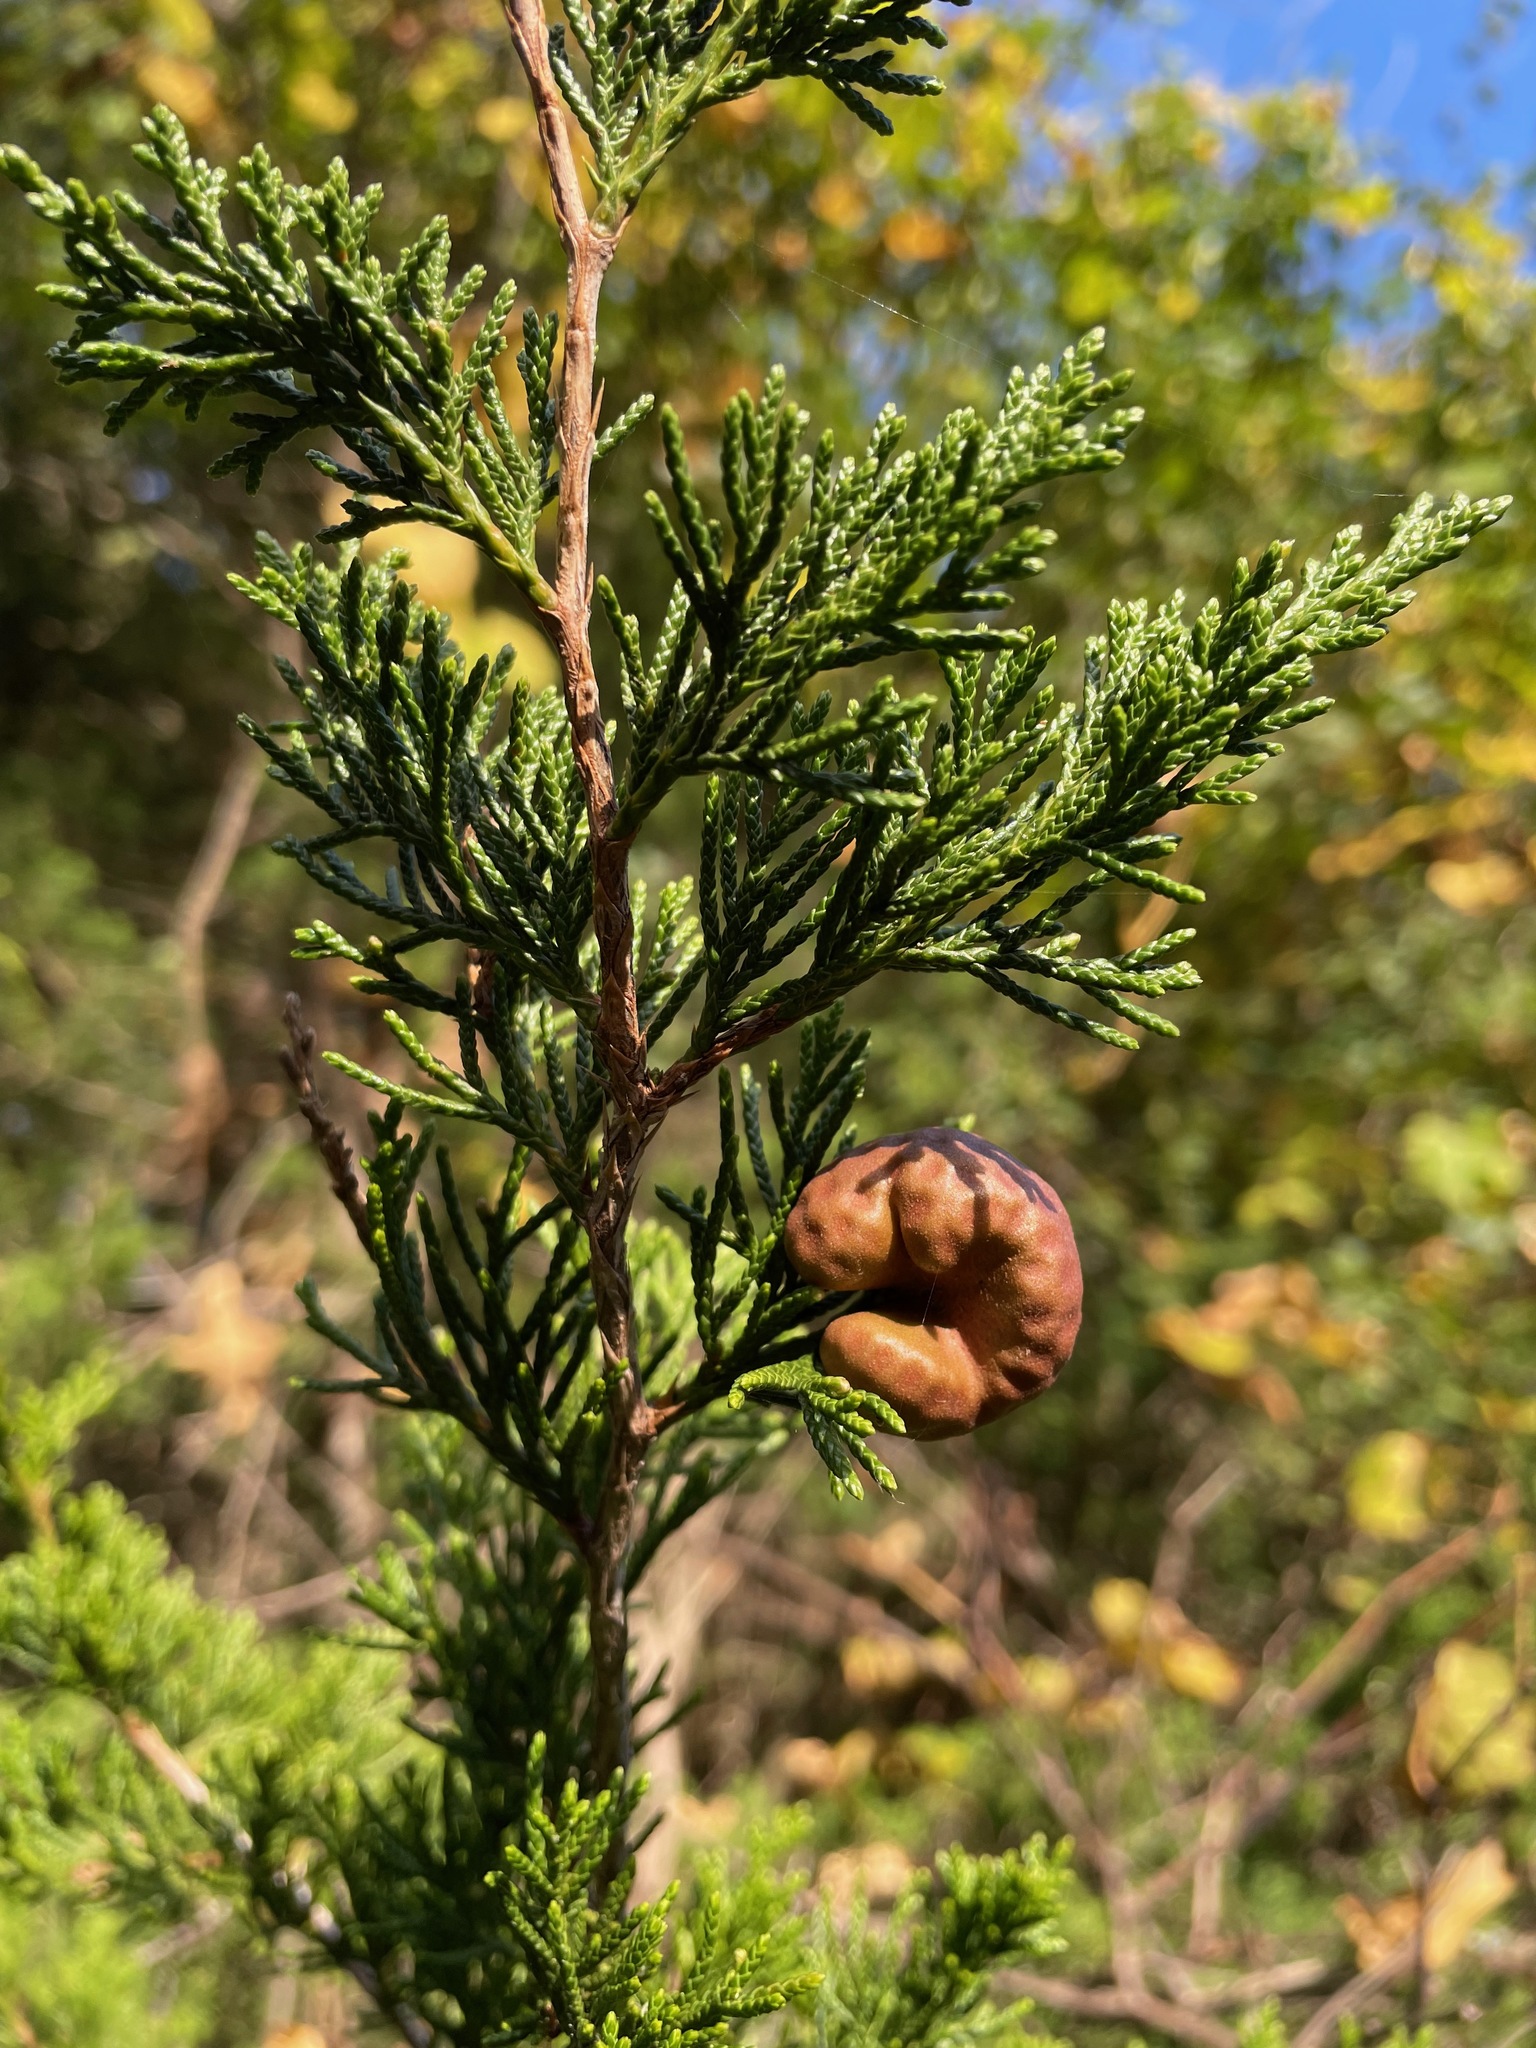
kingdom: Fungi
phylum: Basidiomycota
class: Pucciniomycetes
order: Pucciniales
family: Gymnosporangiaceae
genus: Gymnosporangium
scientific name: Gymnosporangium juniperi-virginianae
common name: Juniper-apple rust
